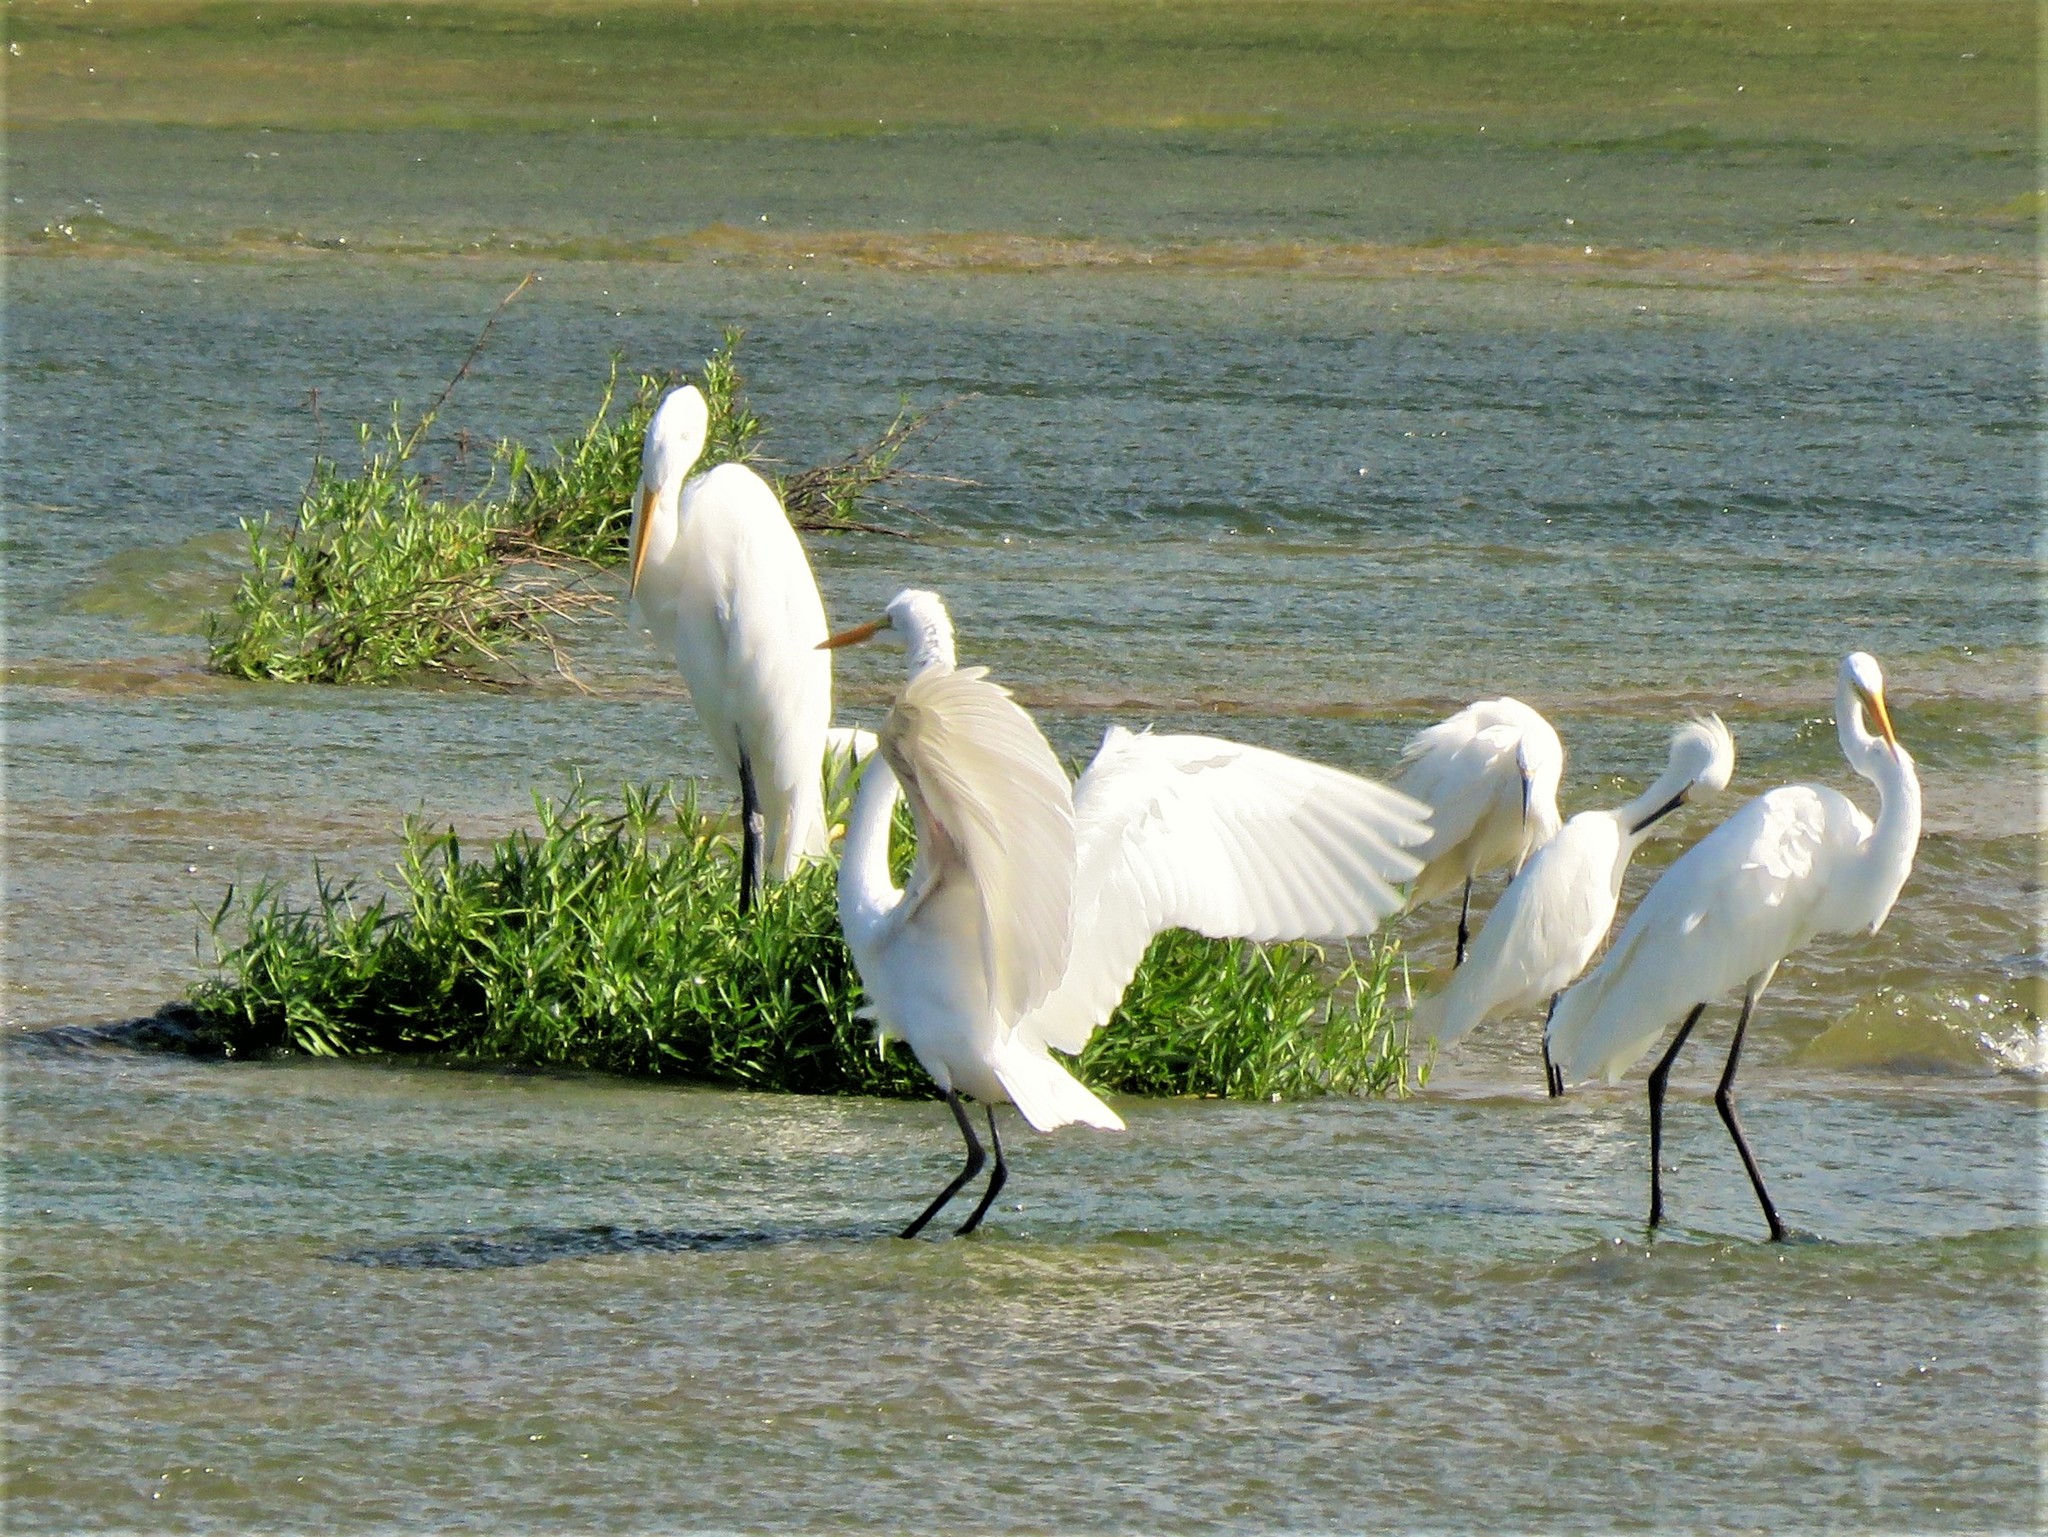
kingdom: Animalia
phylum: Chordata
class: Aves
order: Pelecaniformes
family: Ardeidae
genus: Ardea
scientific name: Ardea alba
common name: Great egret
